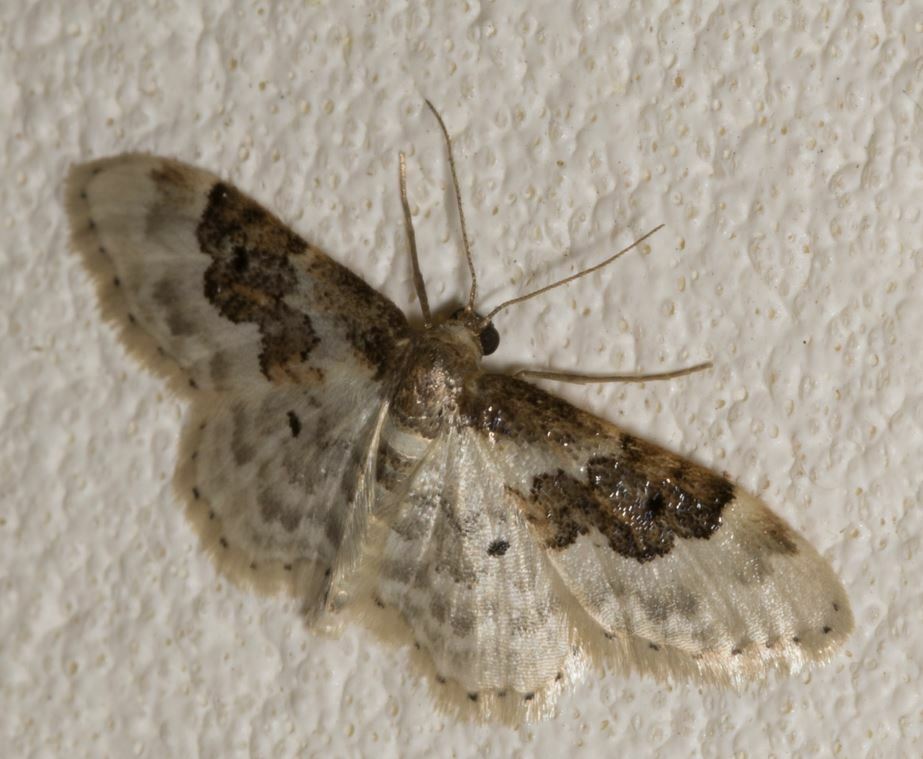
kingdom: Animalia
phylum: Arthropoda
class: Insecta
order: Lepidoptera
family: Geometridae
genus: Idaea
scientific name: Idaea rusticata
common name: Least carpet
